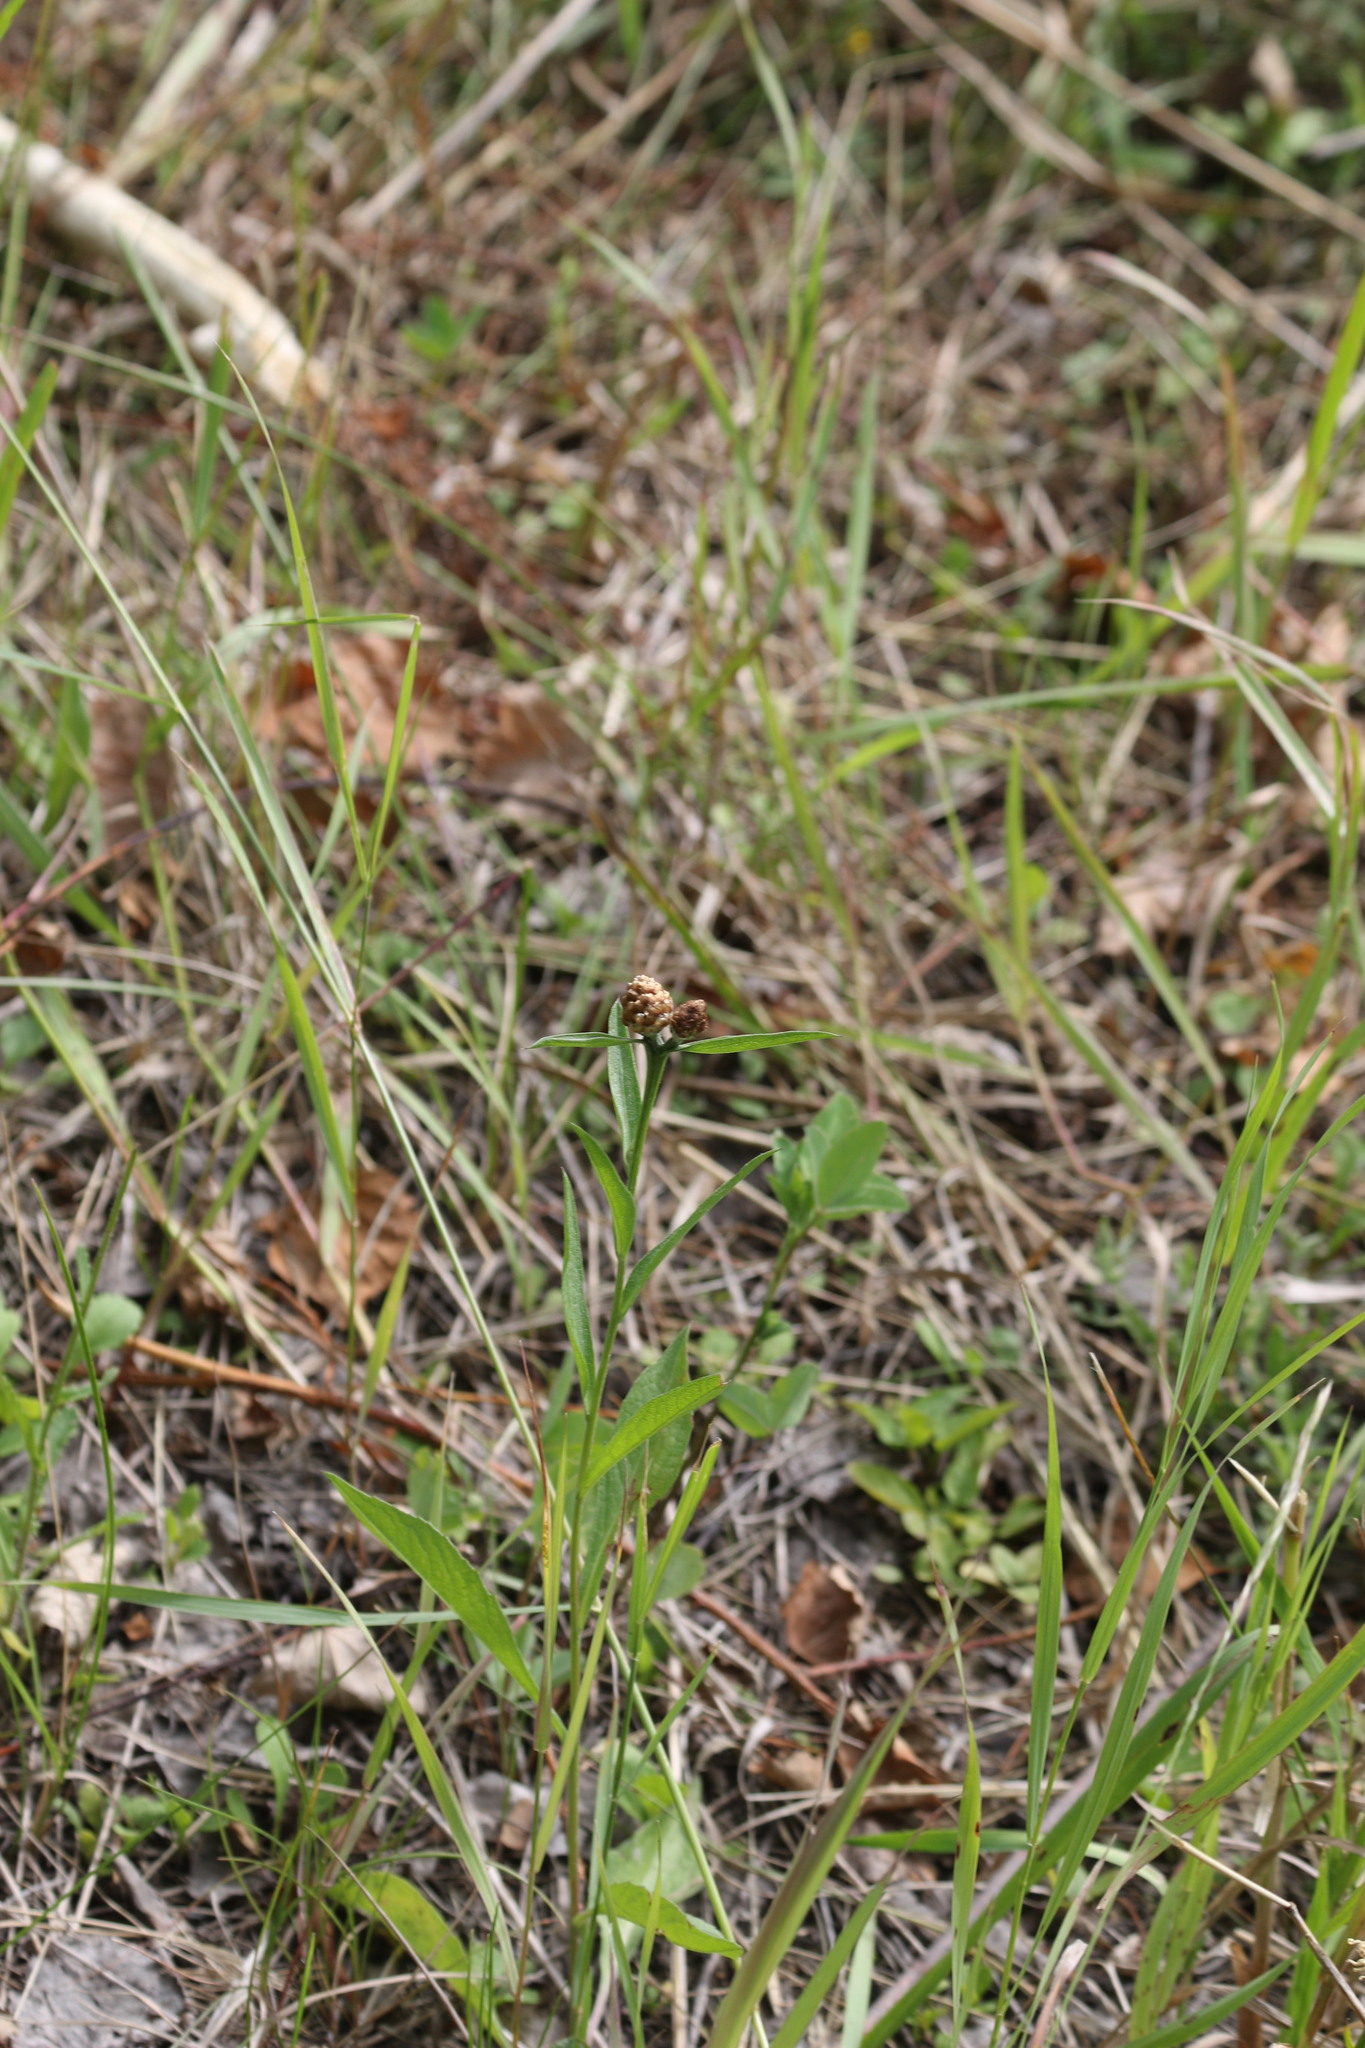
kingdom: Plantae
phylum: Tracheophyta
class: Magnoliopsida
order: Asterales
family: Asteraceae
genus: Centaurea
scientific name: Centaurea jacea
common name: Brown knapweed
